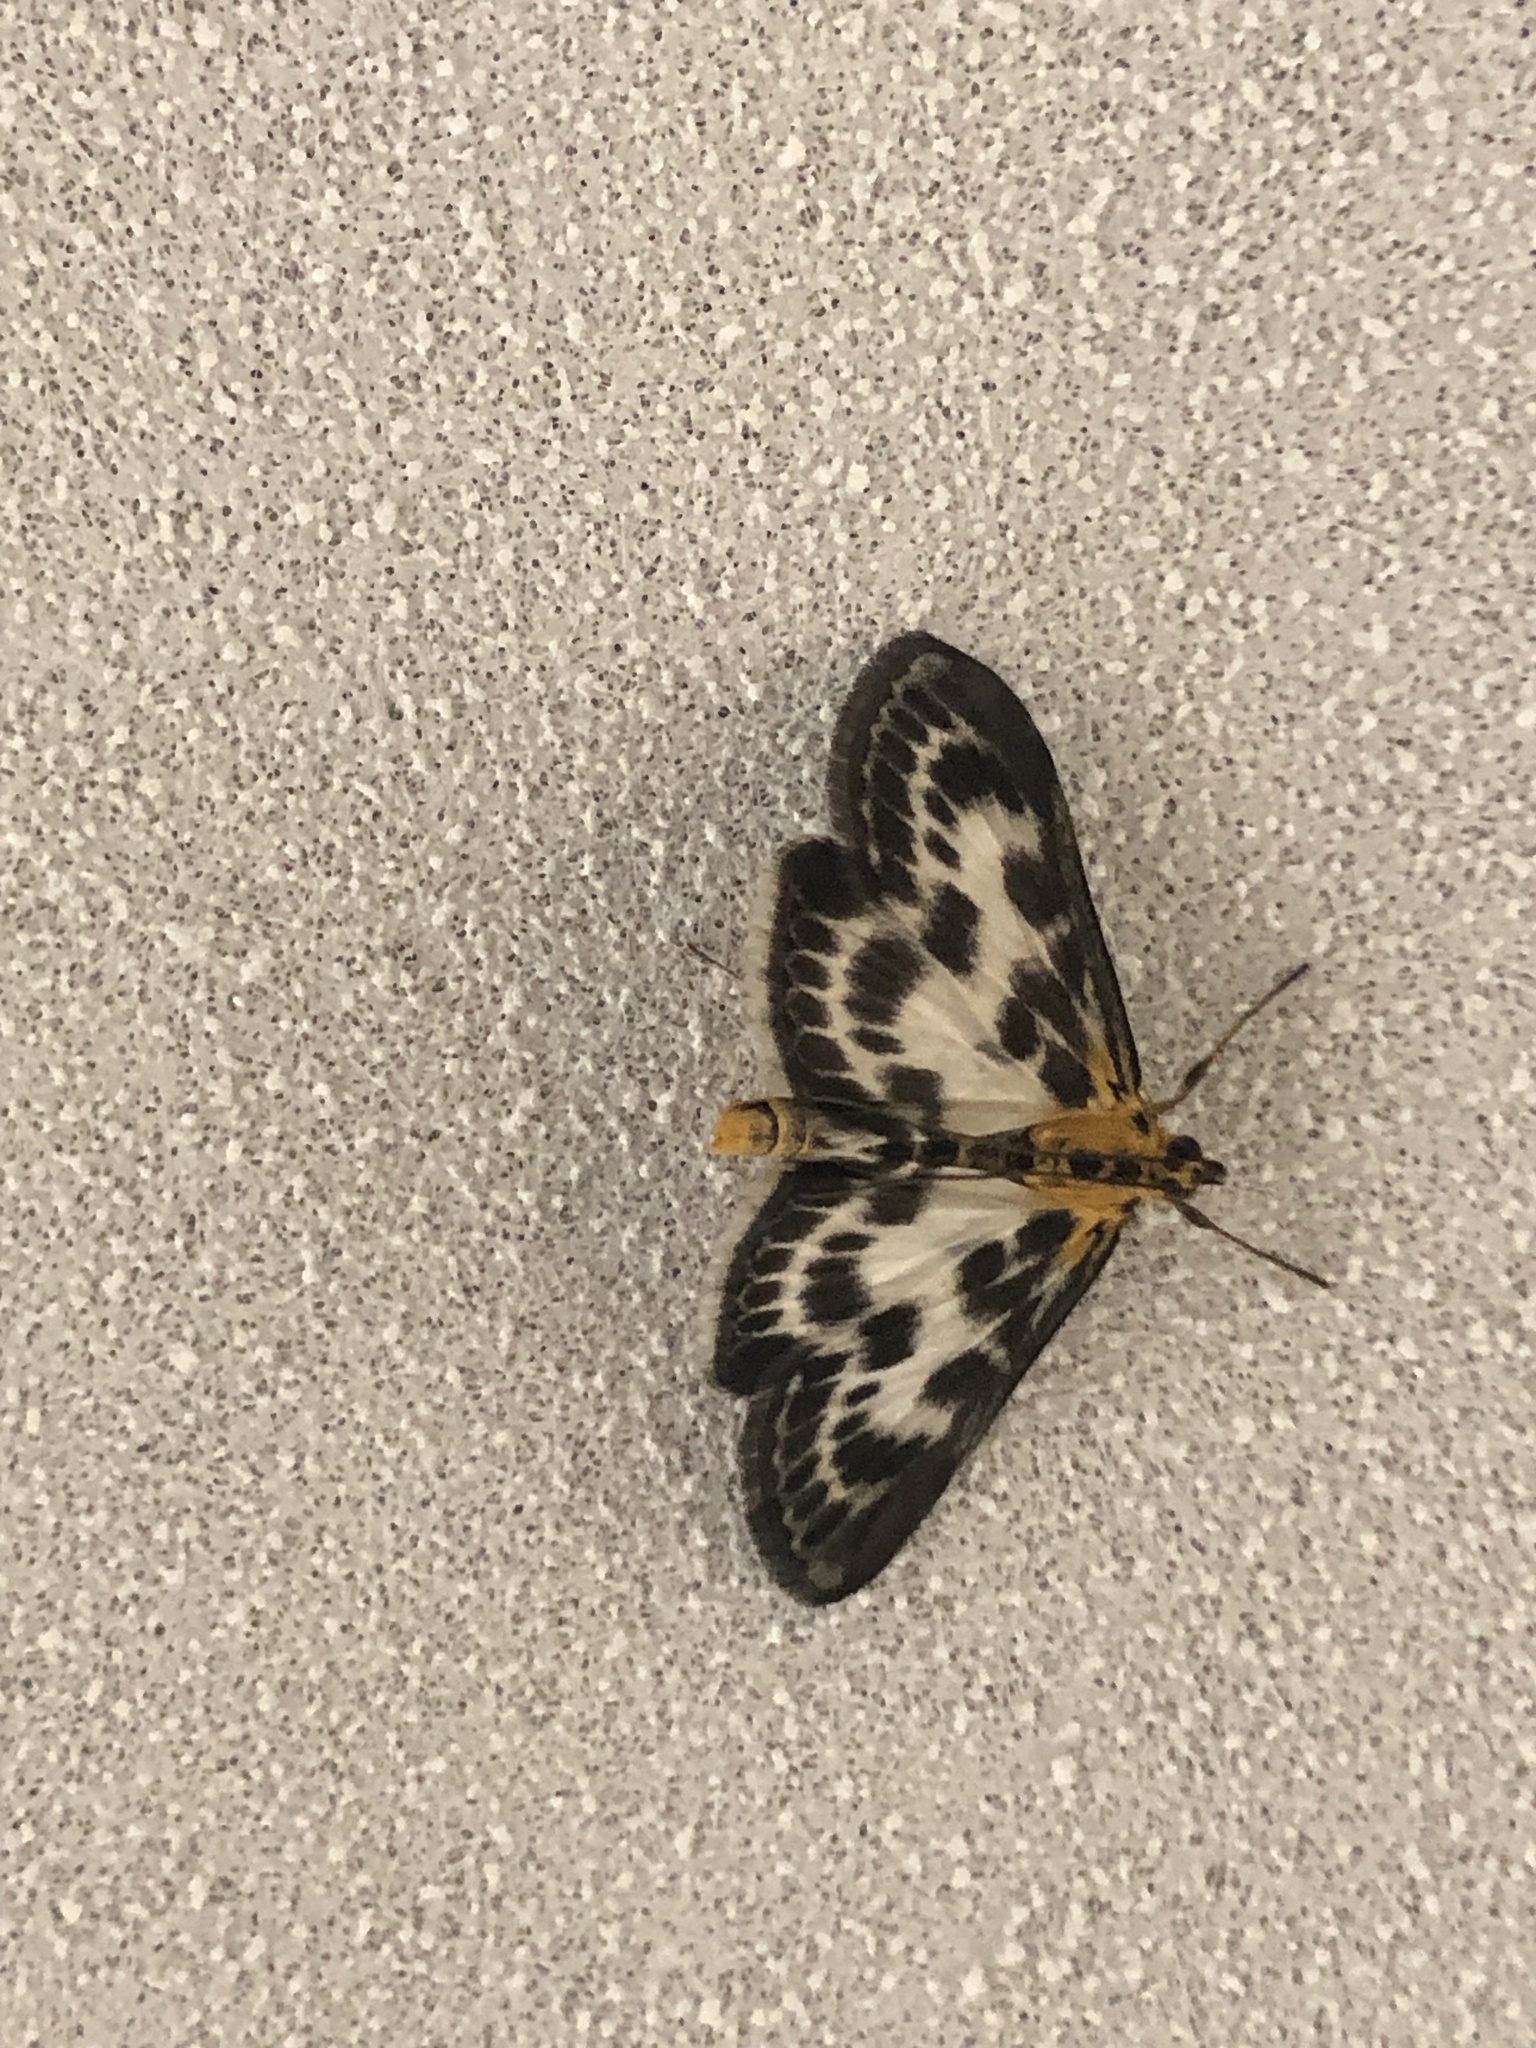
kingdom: Animalia
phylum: Arthropoda
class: Insecta
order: Lepidoptera
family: Crambidae
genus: Anania
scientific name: Anania hortulata
